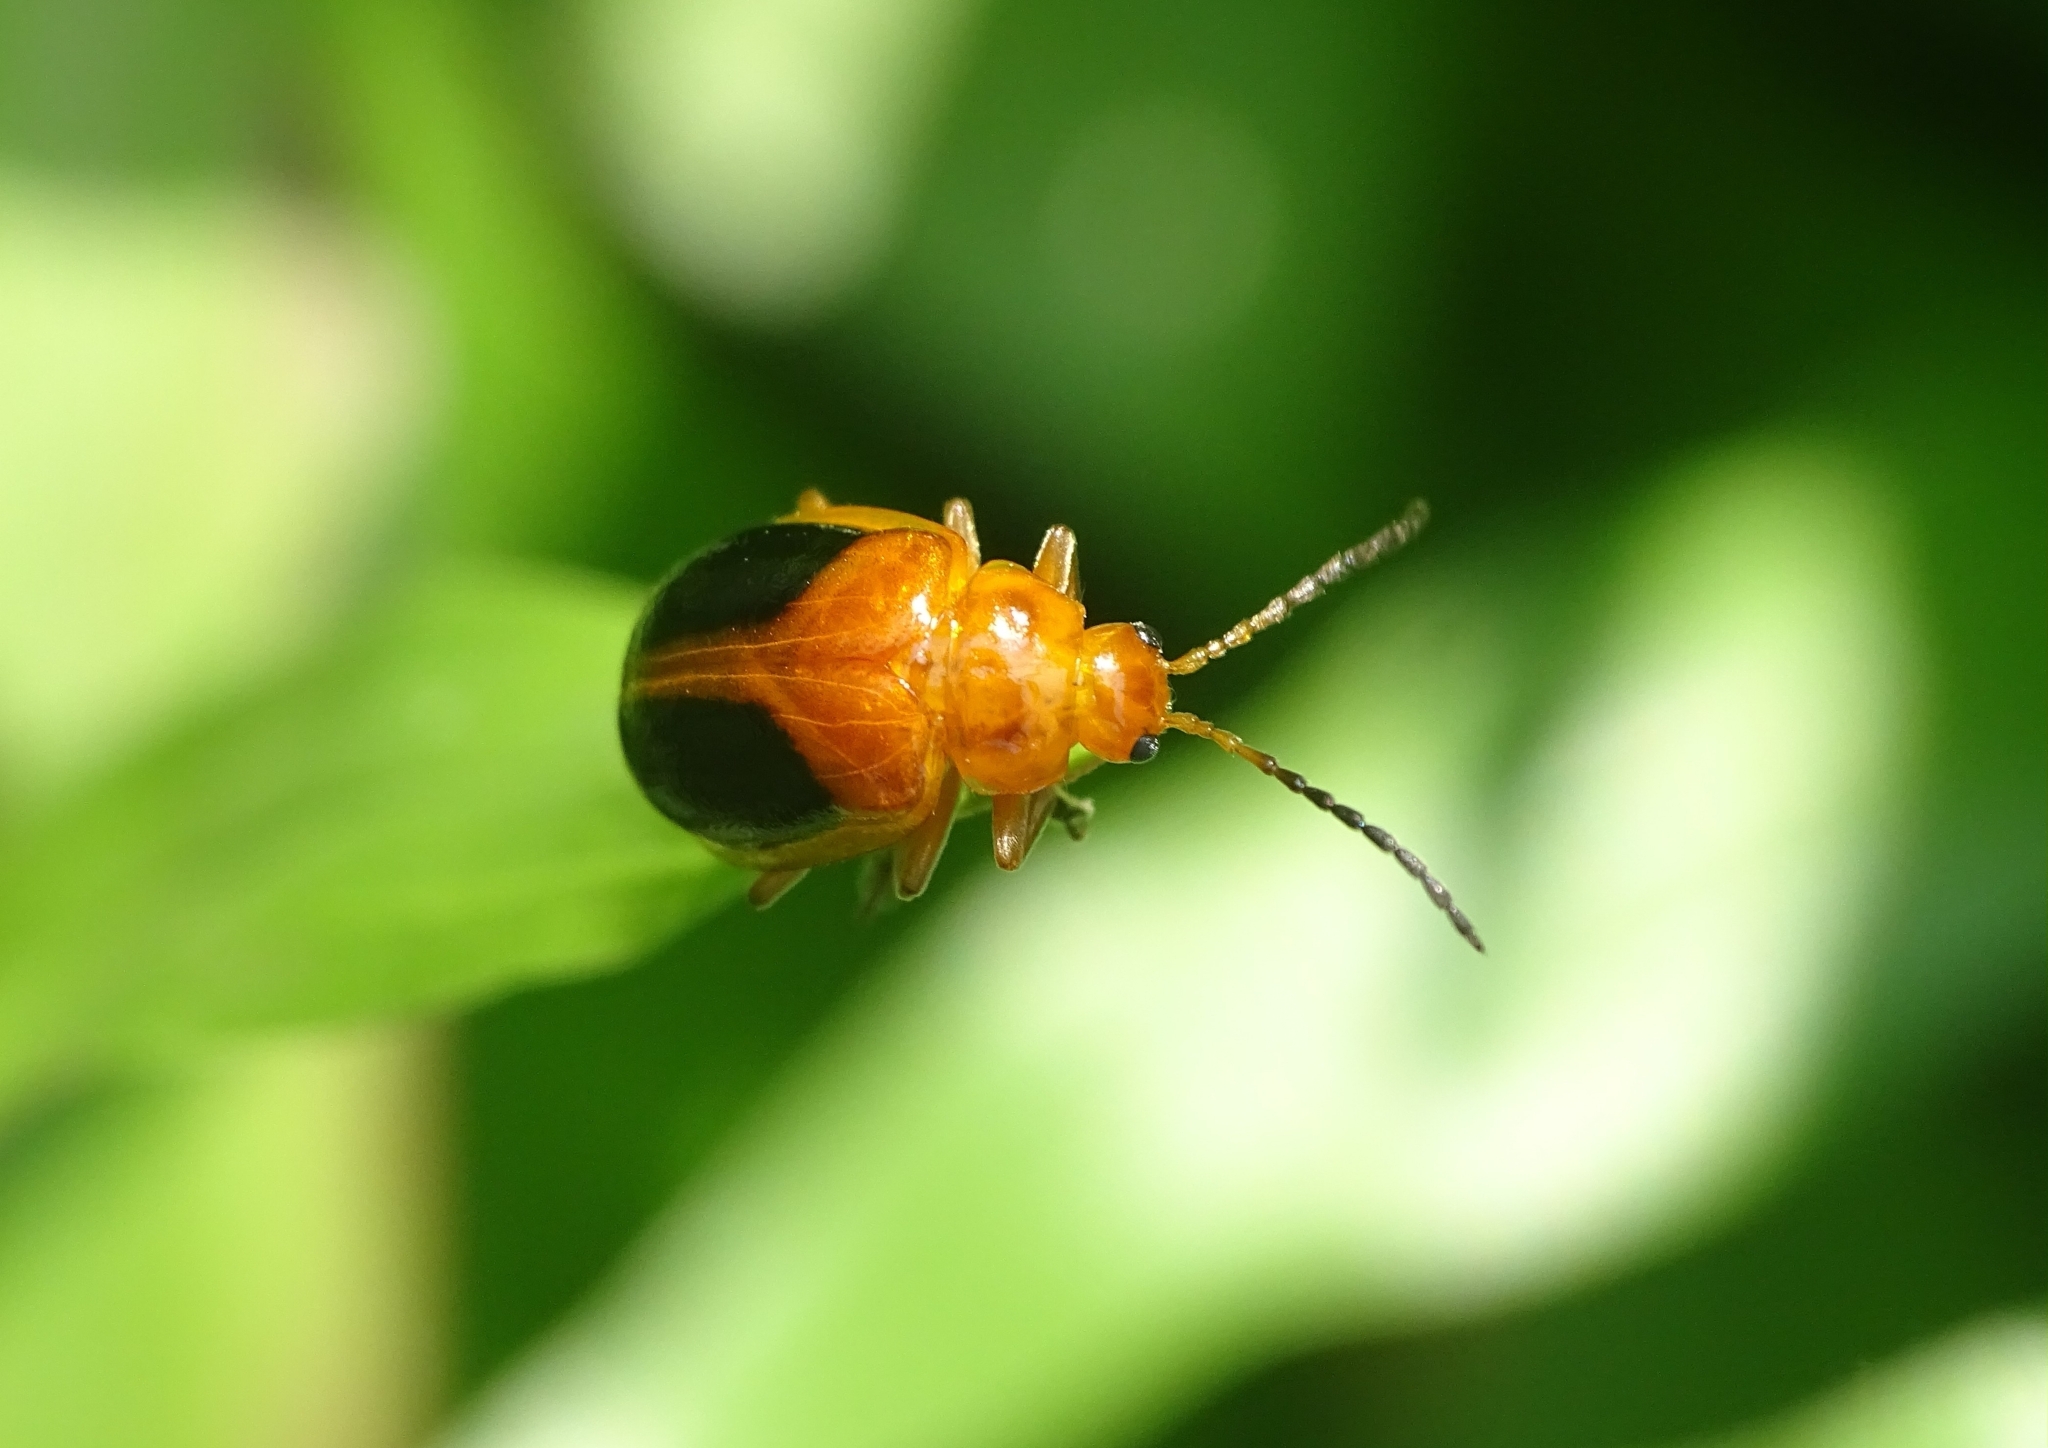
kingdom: Animalia
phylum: Arthropoda
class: Insecta
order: Coleoptera
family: Chrysomelidae
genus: Oides
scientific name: Oides affinis
